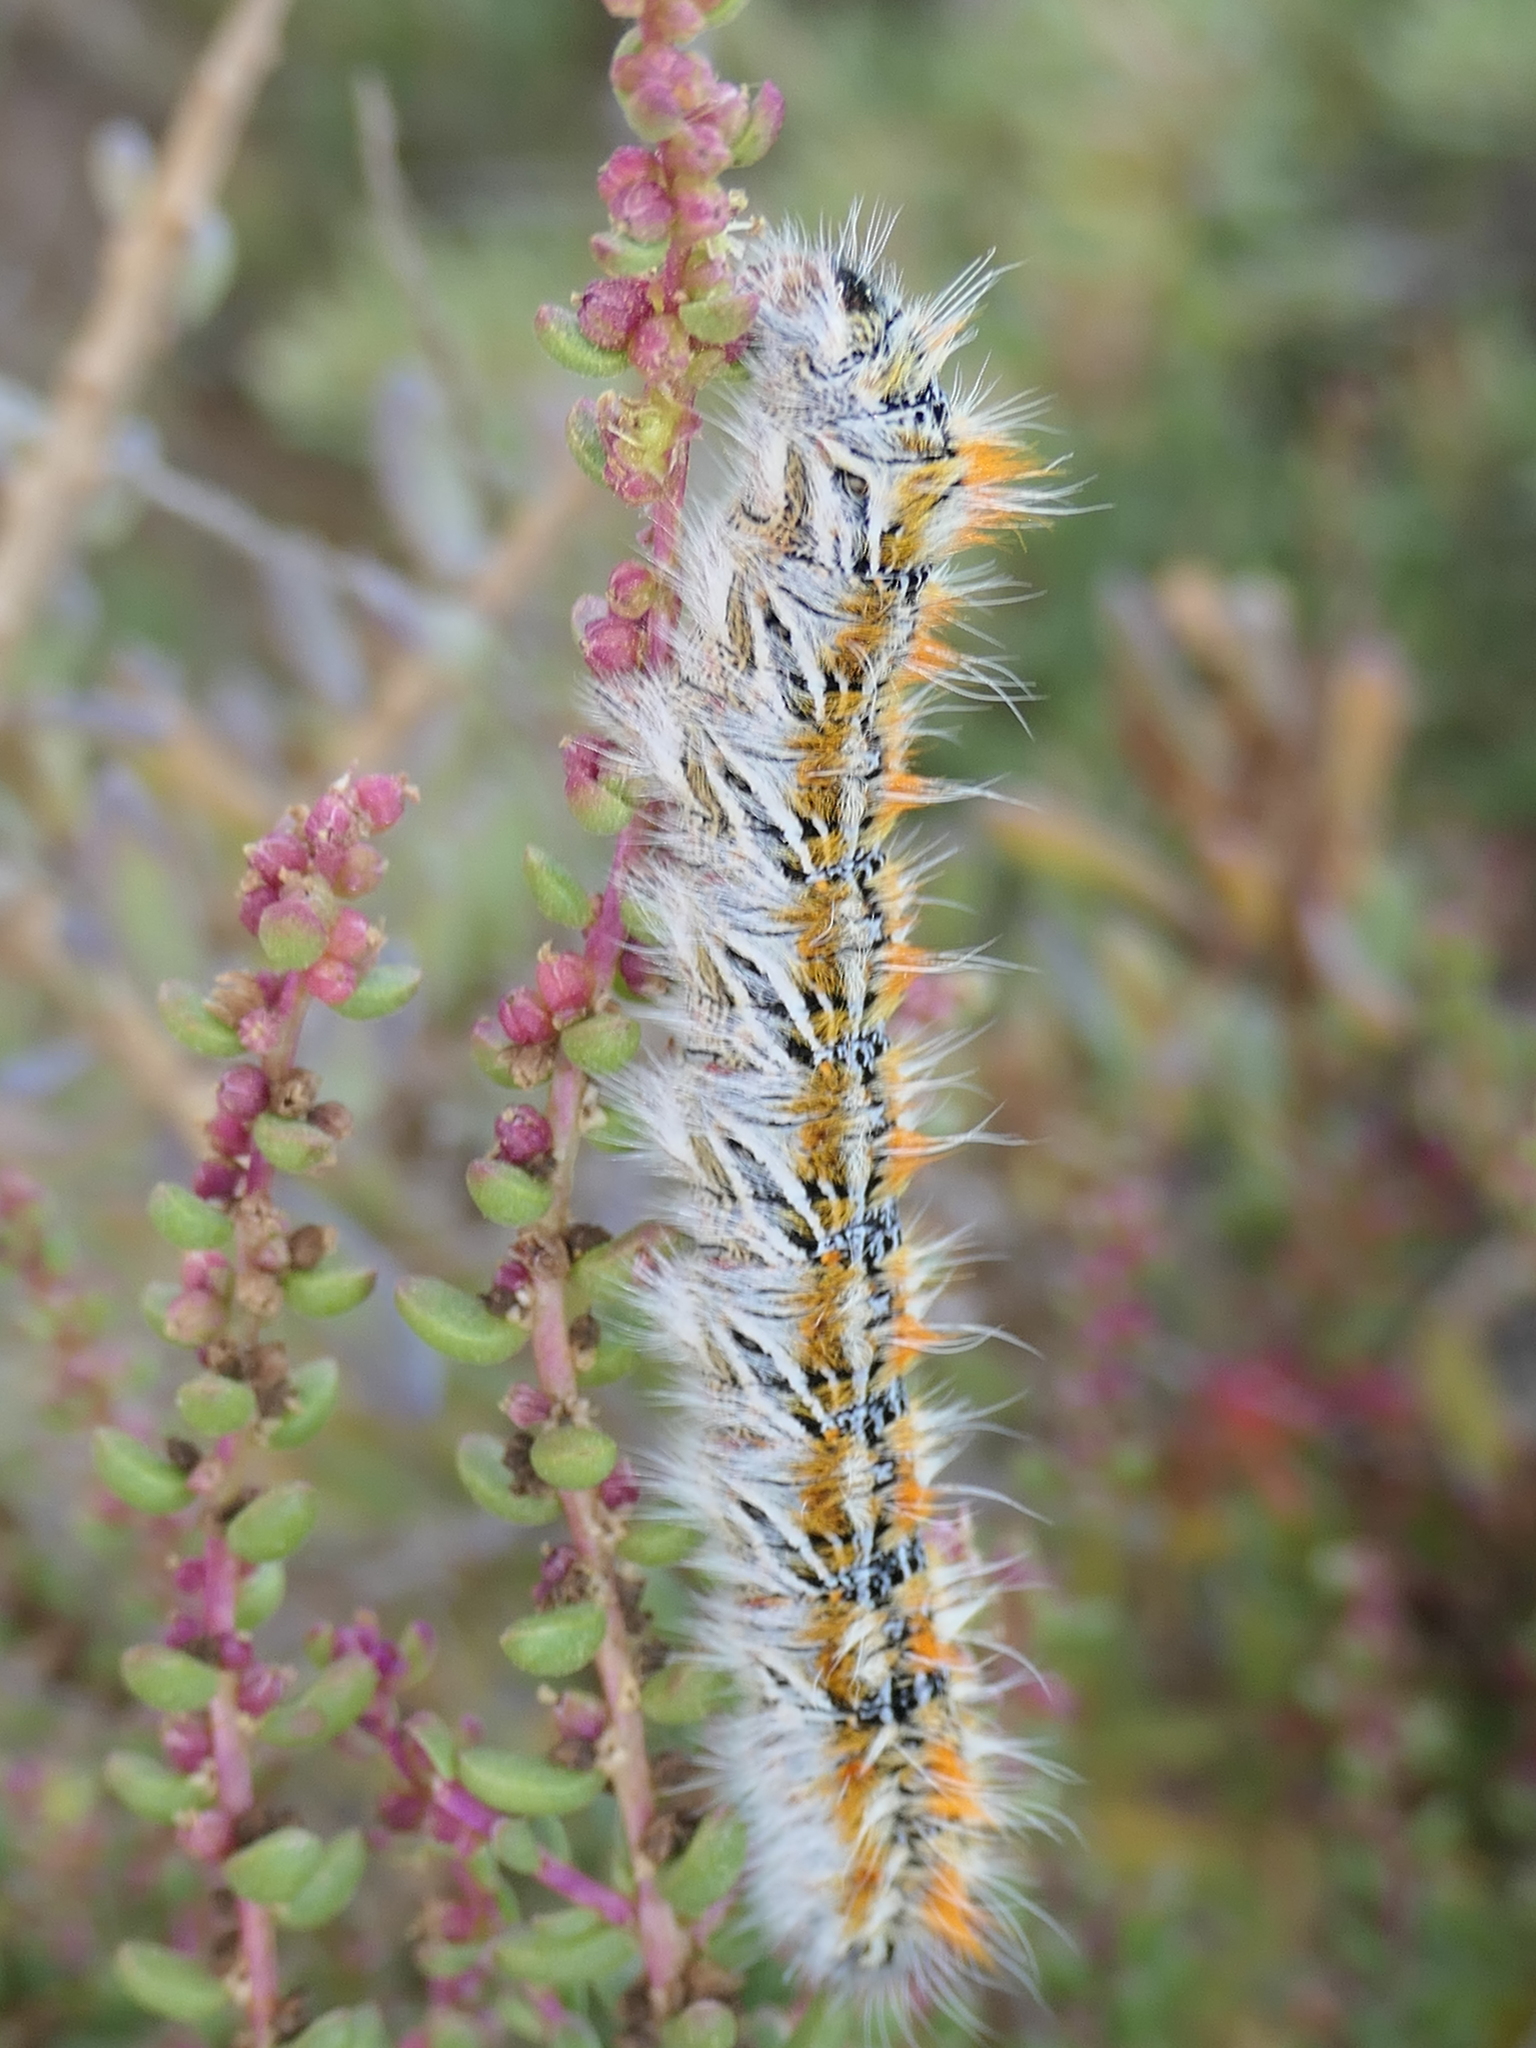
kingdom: Animalia
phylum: Arthropoda
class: Insecta
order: Lepidoptera
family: Lasiocampidae
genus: Lasiocampa
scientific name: Lasiocampa serrula
